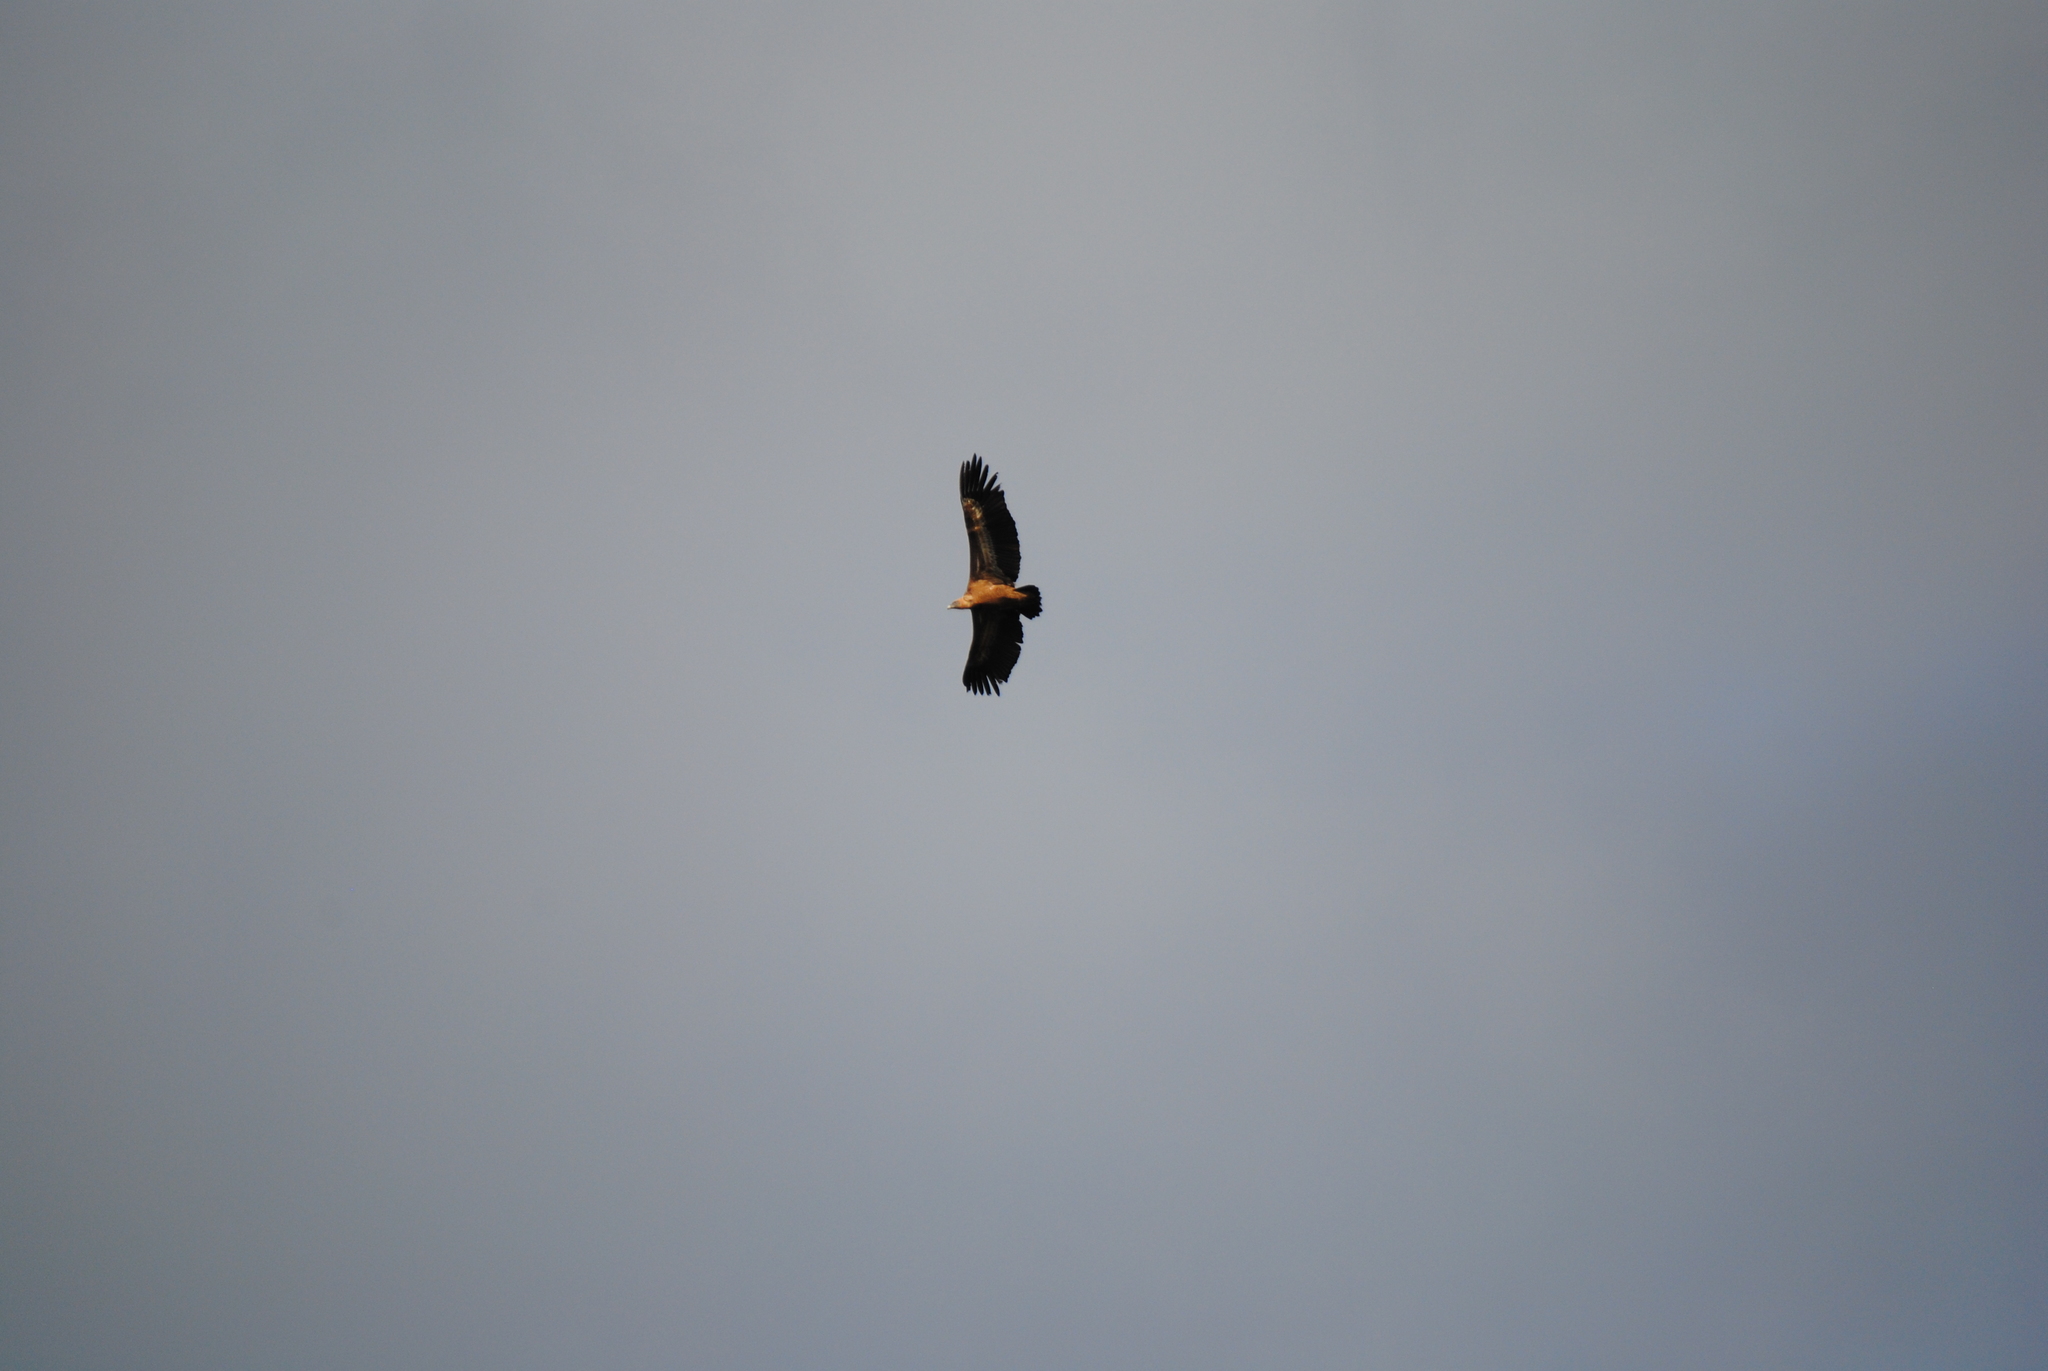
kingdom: Animalia
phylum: Chordata
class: Aves
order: Accipitriformes
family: Accipitridae
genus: Gyps
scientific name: Gyps fulvus
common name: Griffon vulture
